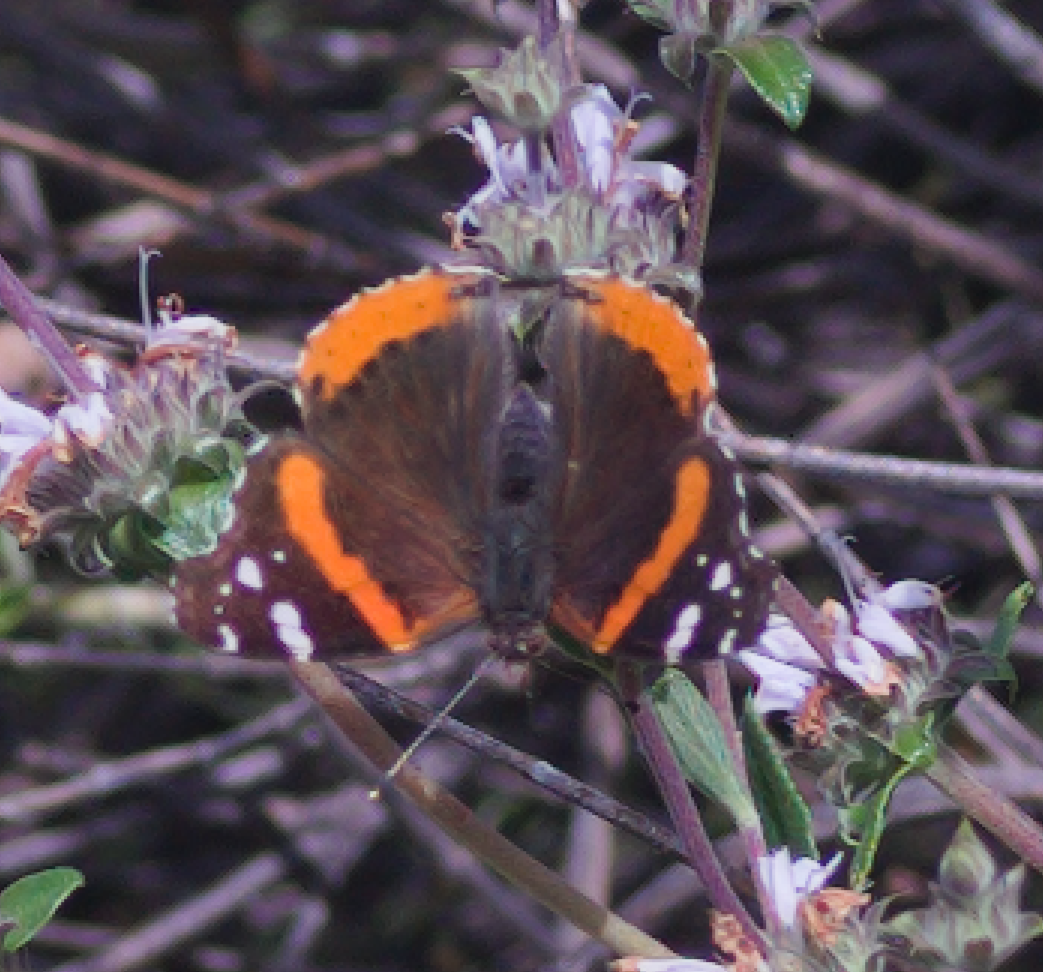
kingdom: Animalia
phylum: Arthropoda
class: Insecta
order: Lepidoptera
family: Nymphalidae
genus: Vanessa
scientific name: Vanessa atalanta
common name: Red admiral
